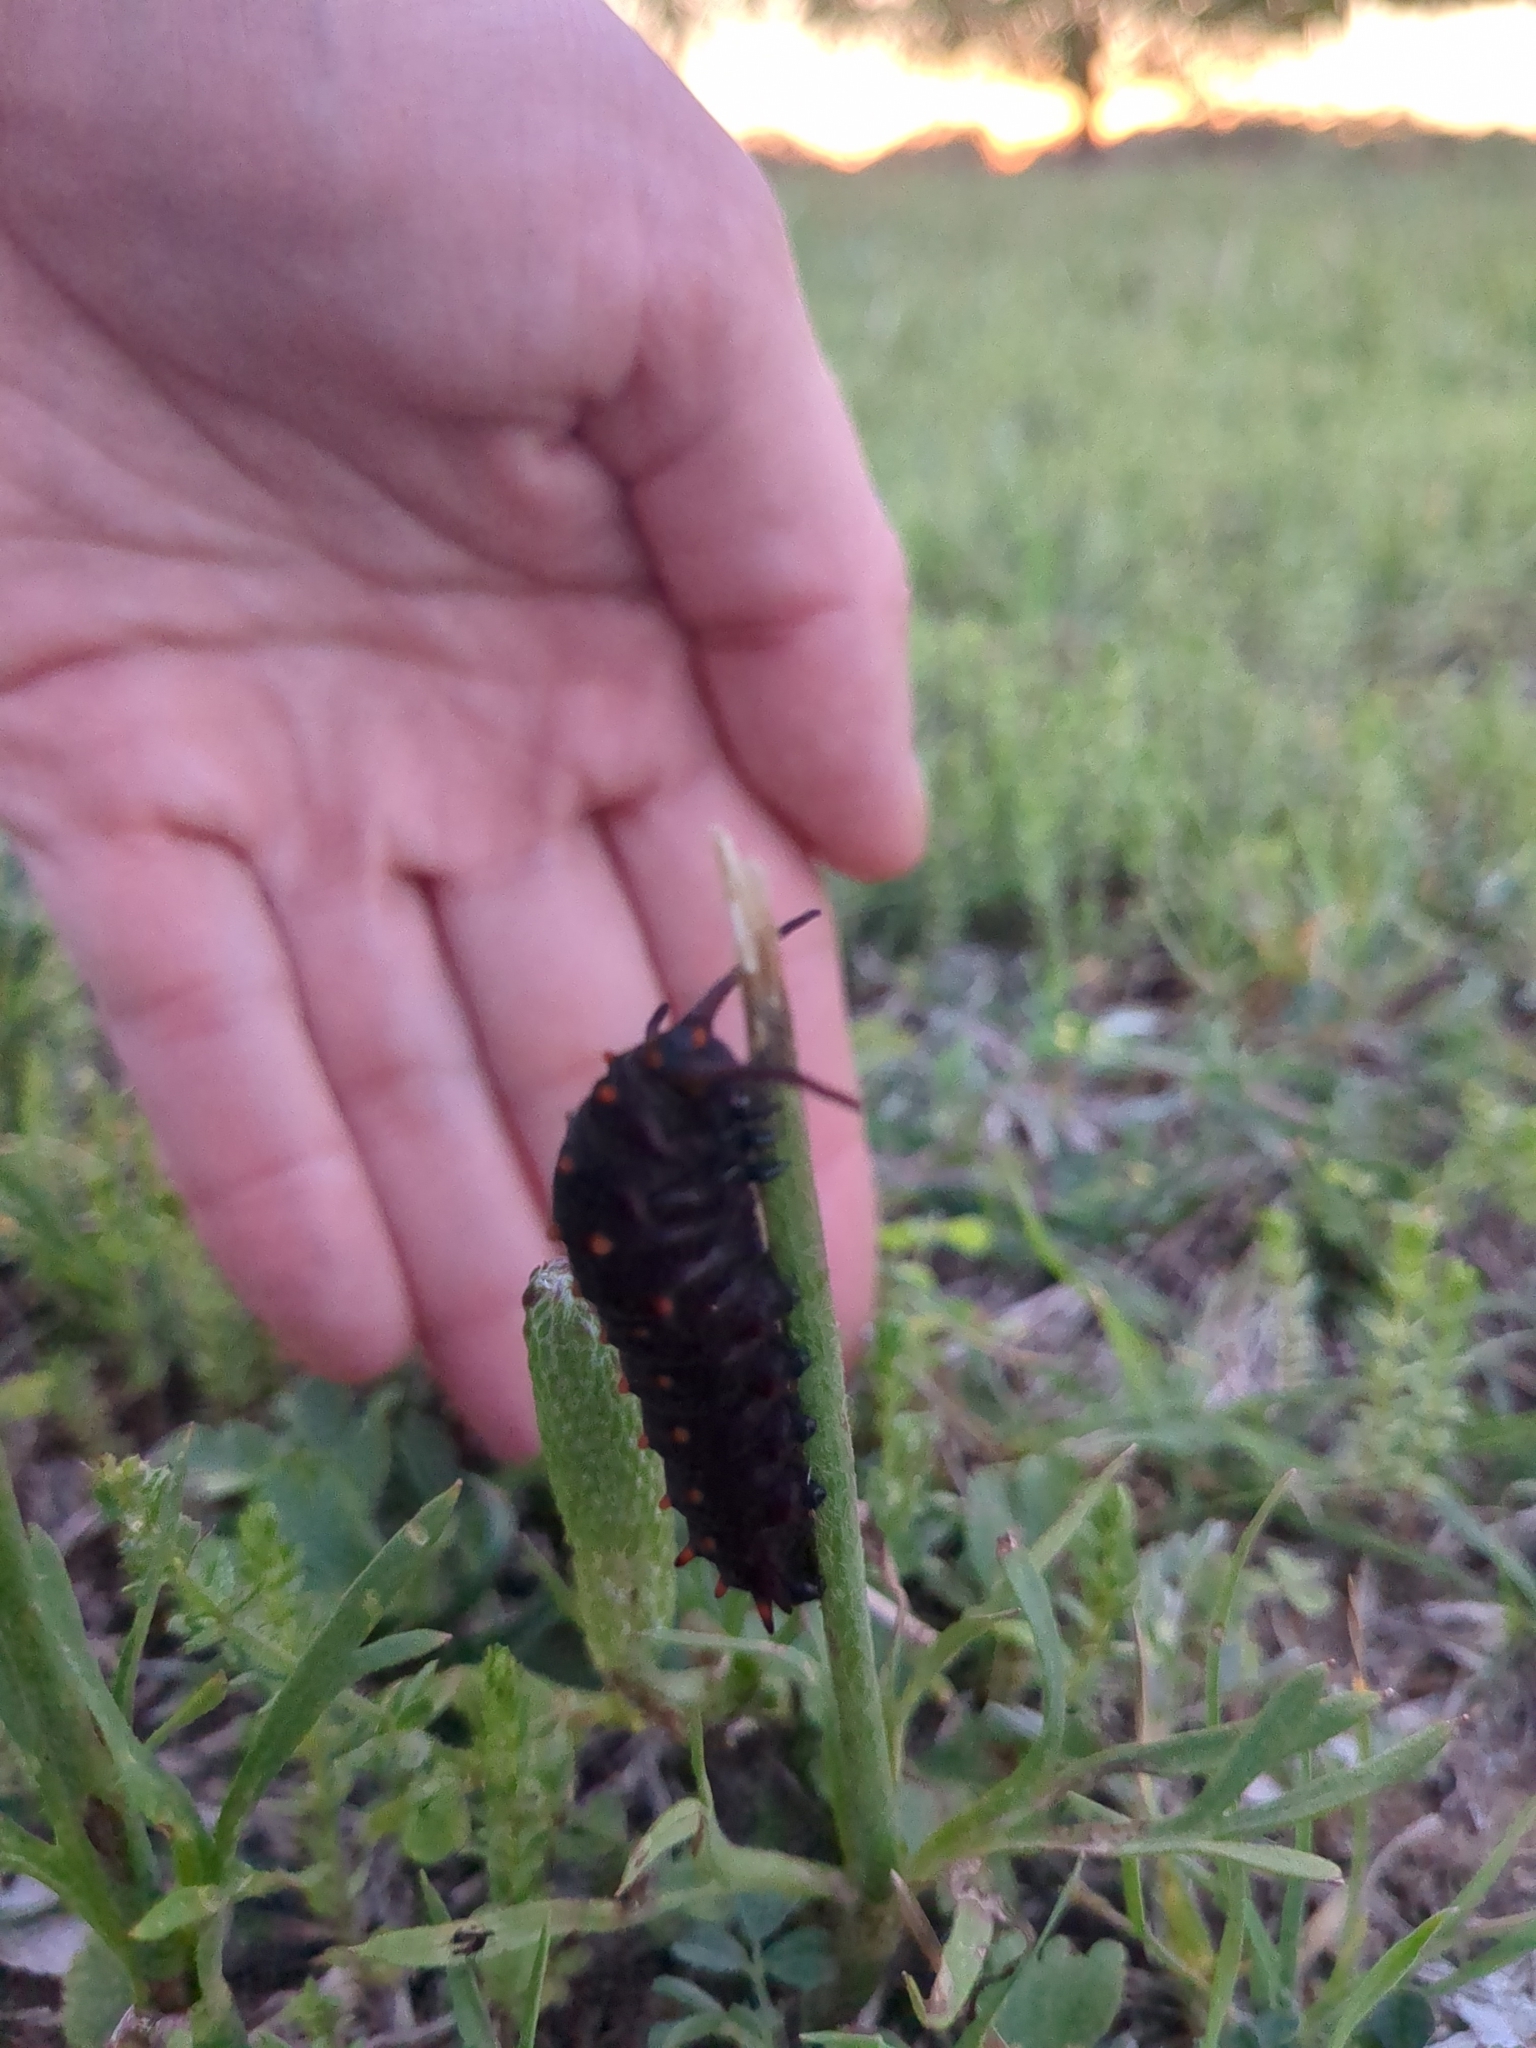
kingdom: Animalia
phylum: Arthropoda
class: Insecta
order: Lepidoptera
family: Papilionidae
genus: Battus
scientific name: Battus philenor
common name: Pipevine swallowtail
